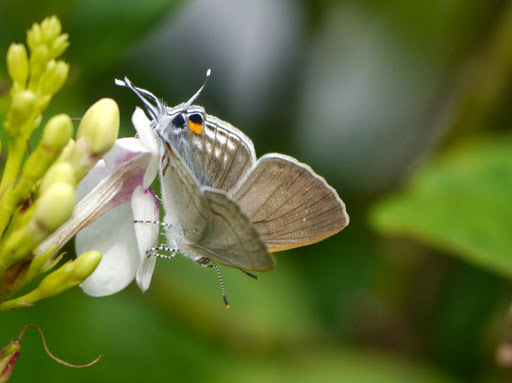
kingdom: Animalia
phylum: Arthropoda
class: Insecta
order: Lepidoptera
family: Lycaenidae
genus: Hypolycaena
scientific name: Hypolycaena philippus
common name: Common hairstreak
